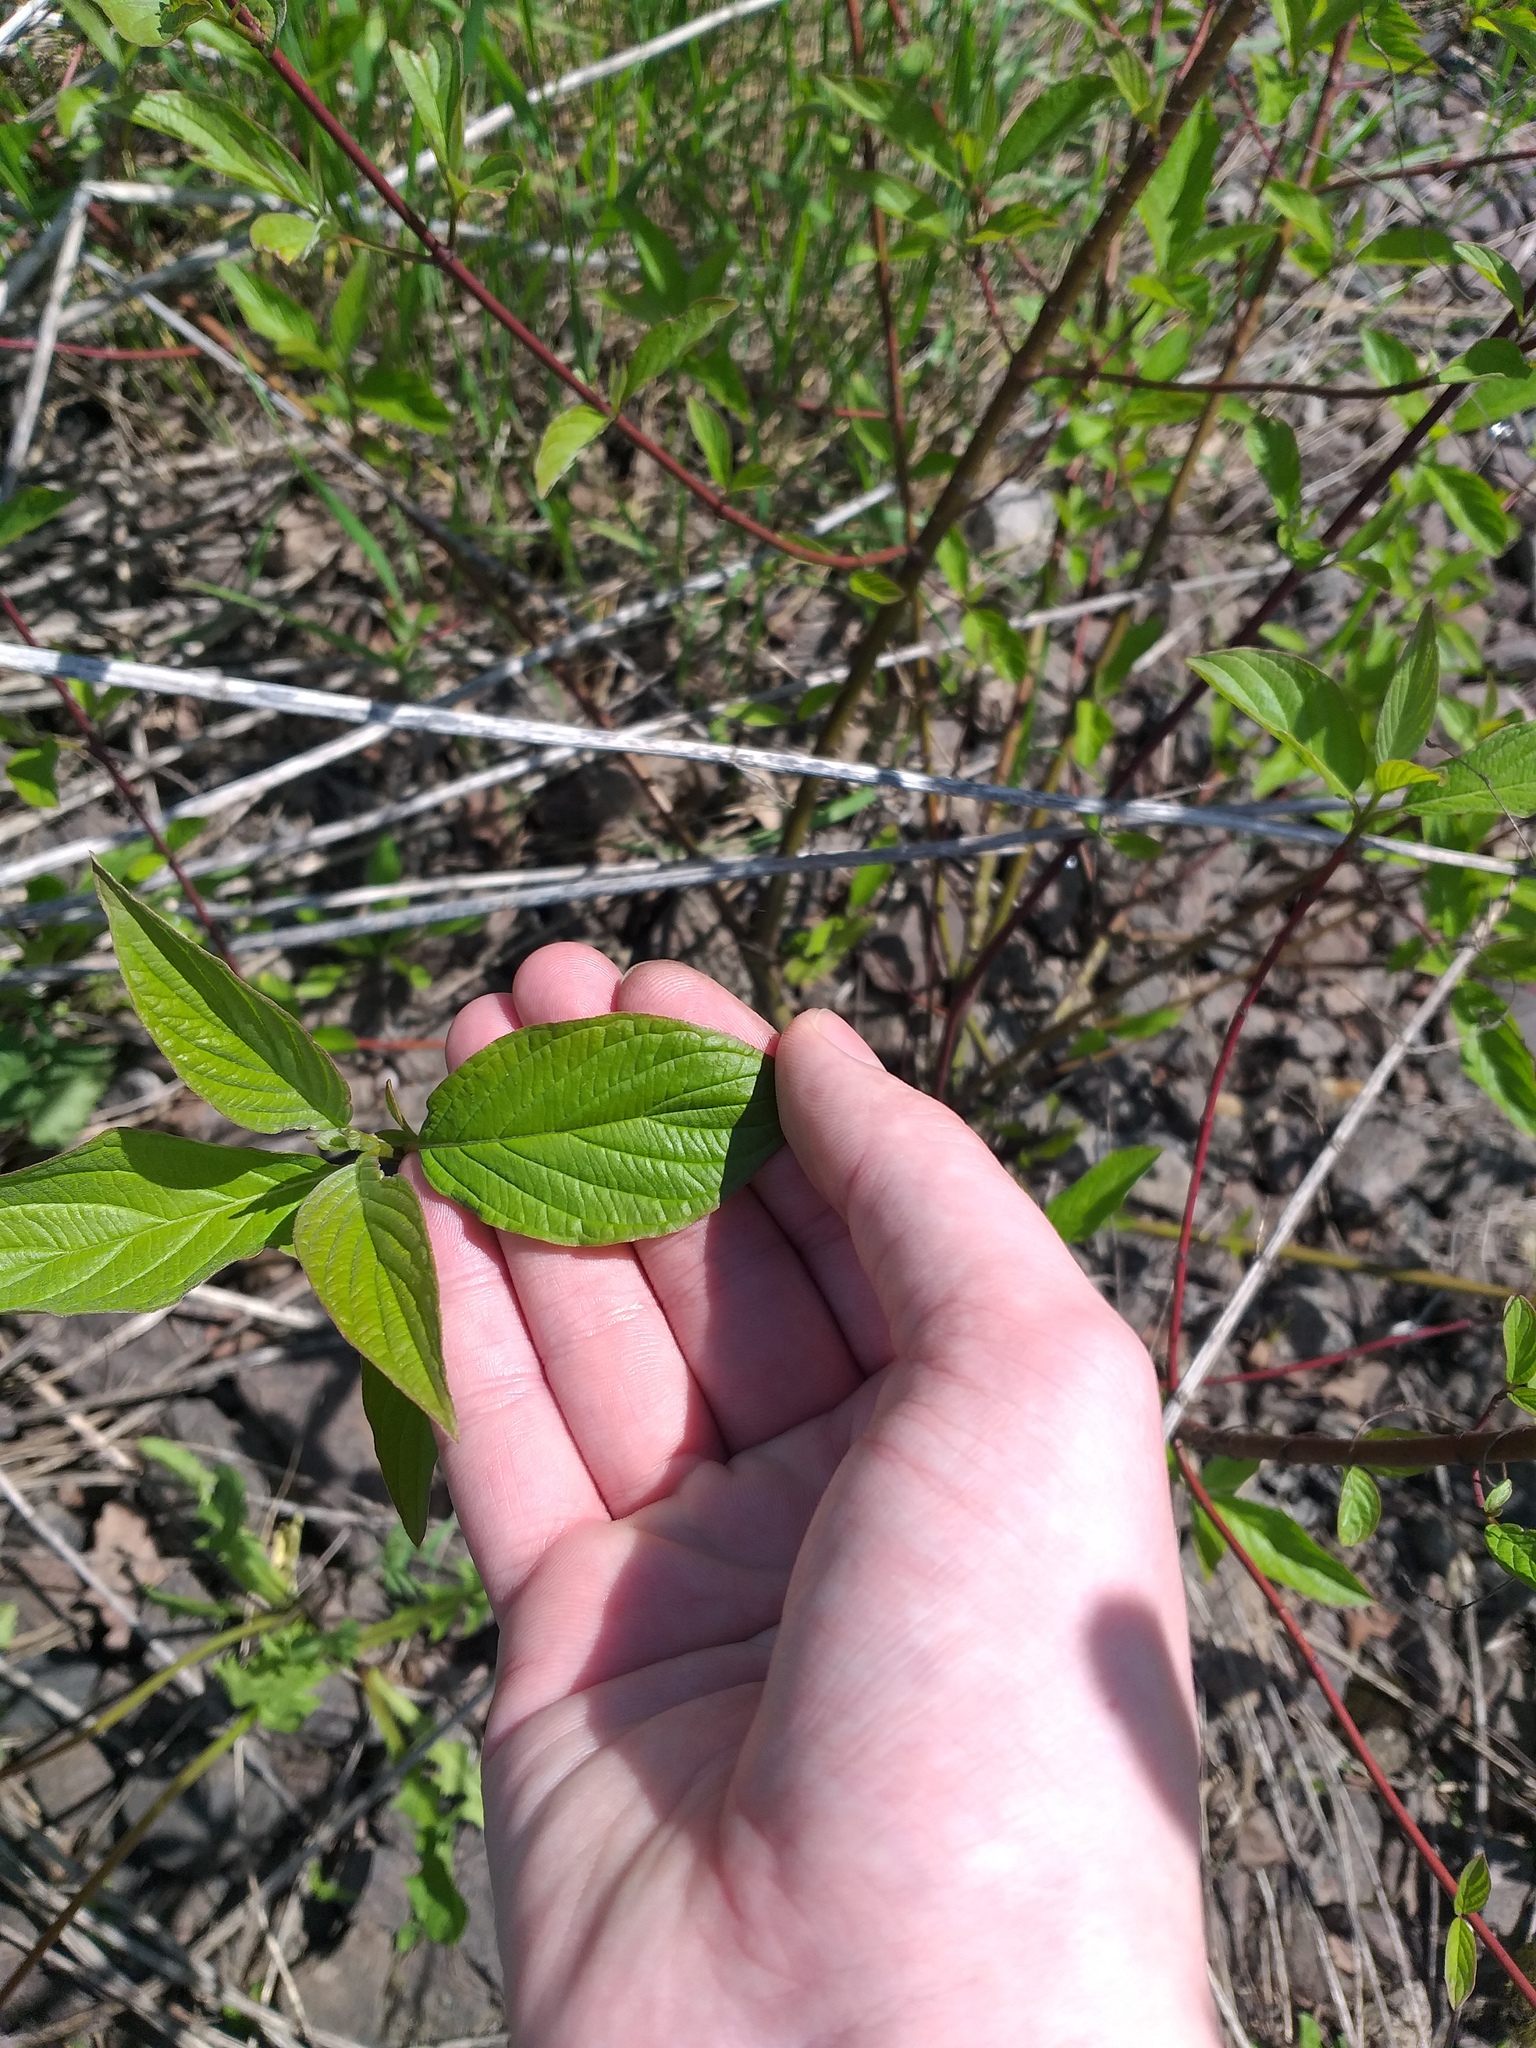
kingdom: Plantae
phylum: Tracheophyta
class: Magnoliopsida
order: Cornales
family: Cornaceae
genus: Cornus
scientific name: Cornus alba
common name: White dogwood
